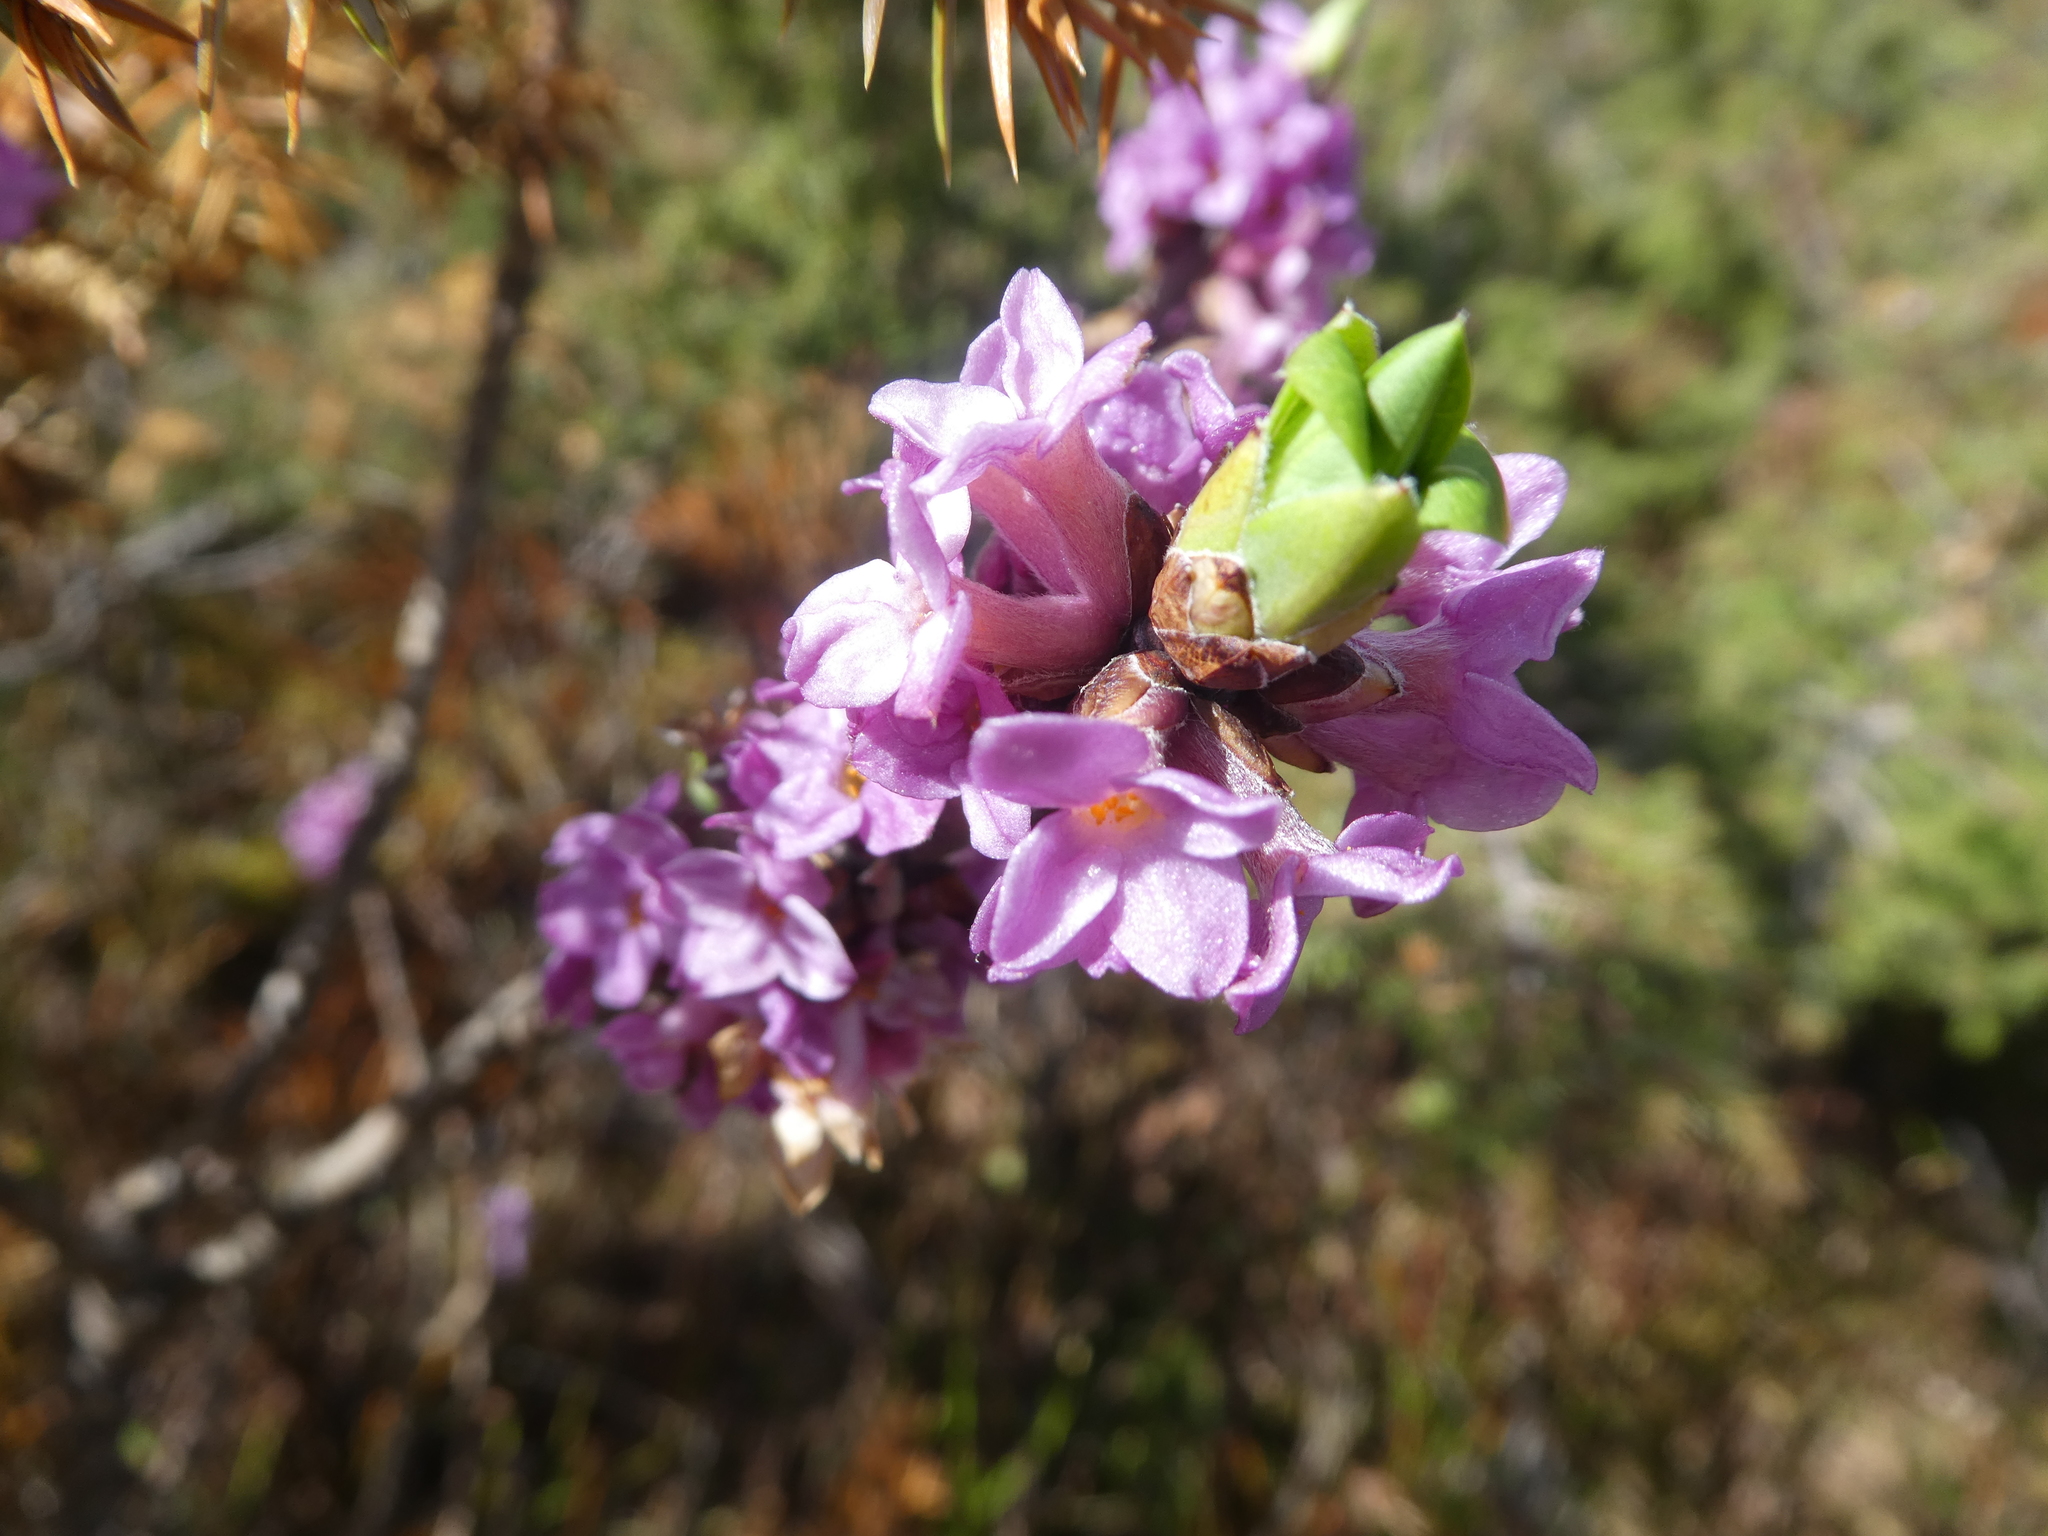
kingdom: Plantae
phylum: Tracheophyta
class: Magnoliopsida
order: Malvales
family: Thymelaeaceae
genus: Daphne
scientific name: Daphne mezereum
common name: Mezereon
